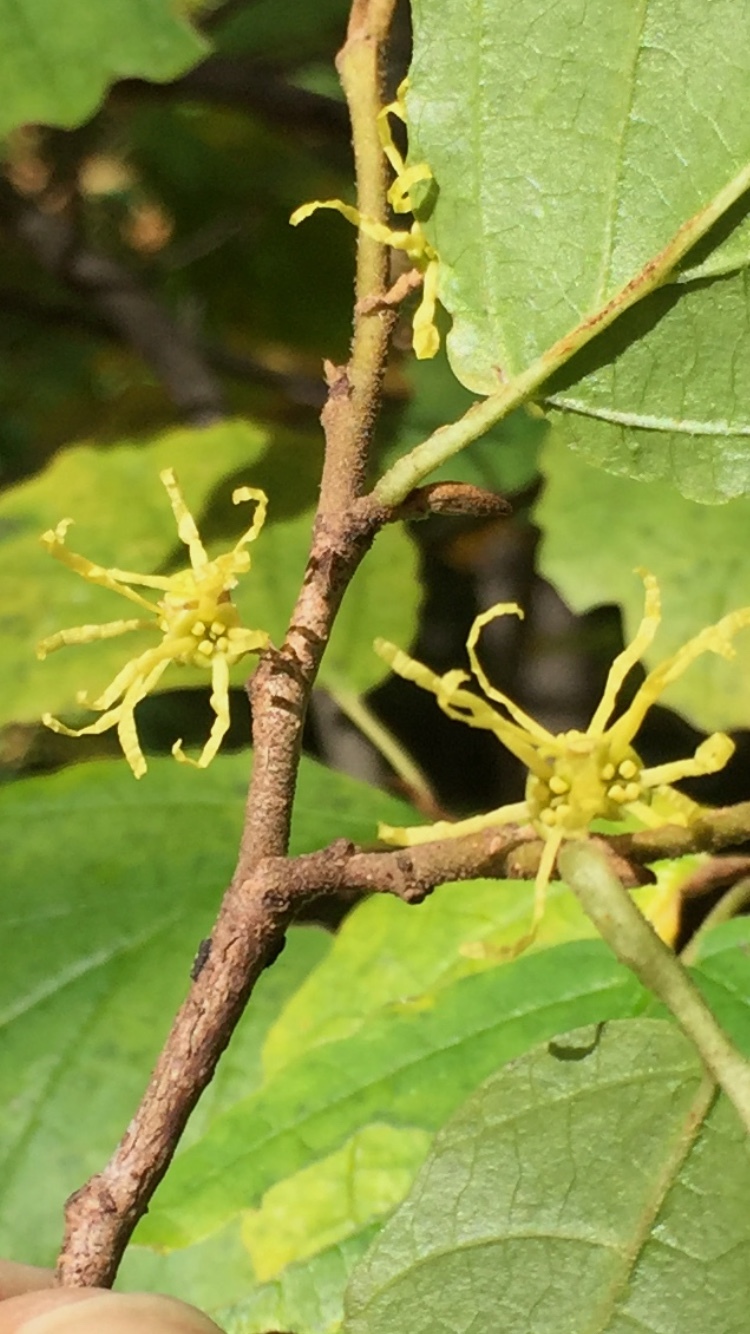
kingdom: Plantae
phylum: Tracheophyta
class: Magnoliopsida
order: Saxifragales
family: Hamamelidaceae
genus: Hamamelis
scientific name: Hamamelis virginiana
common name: Witch-hazel
